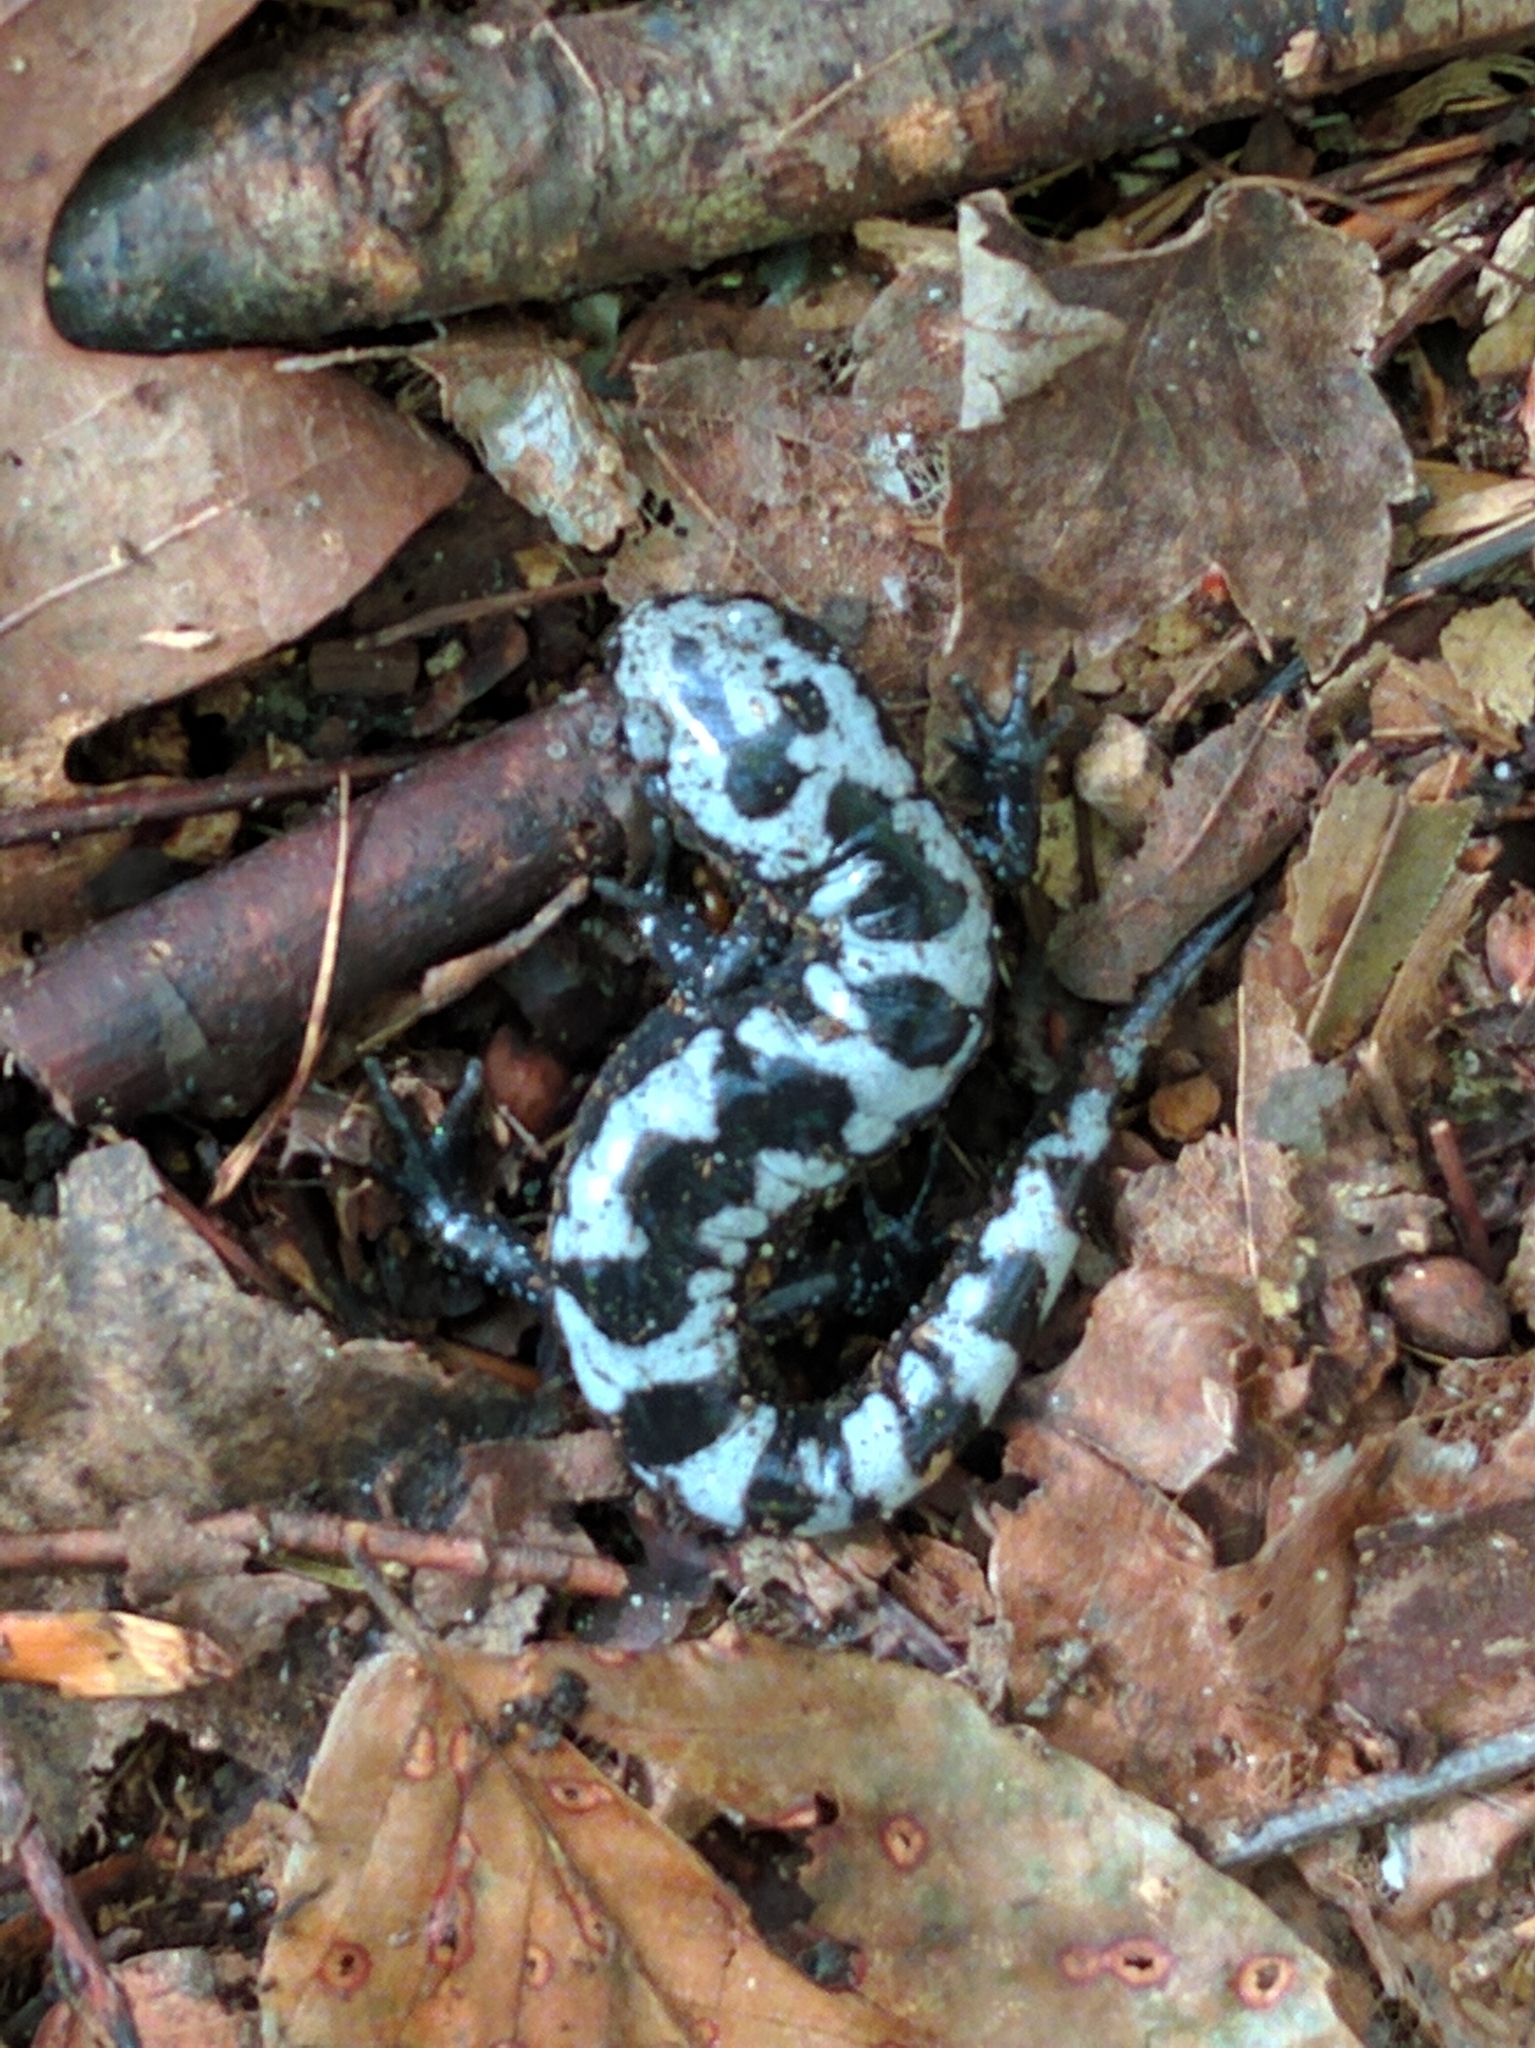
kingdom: Animalia
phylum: Chordata
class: Amphibia
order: Caudata
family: Ambystomatidae
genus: Ambystoma
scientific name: Ambystoma opacum
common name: Marbled salamander
